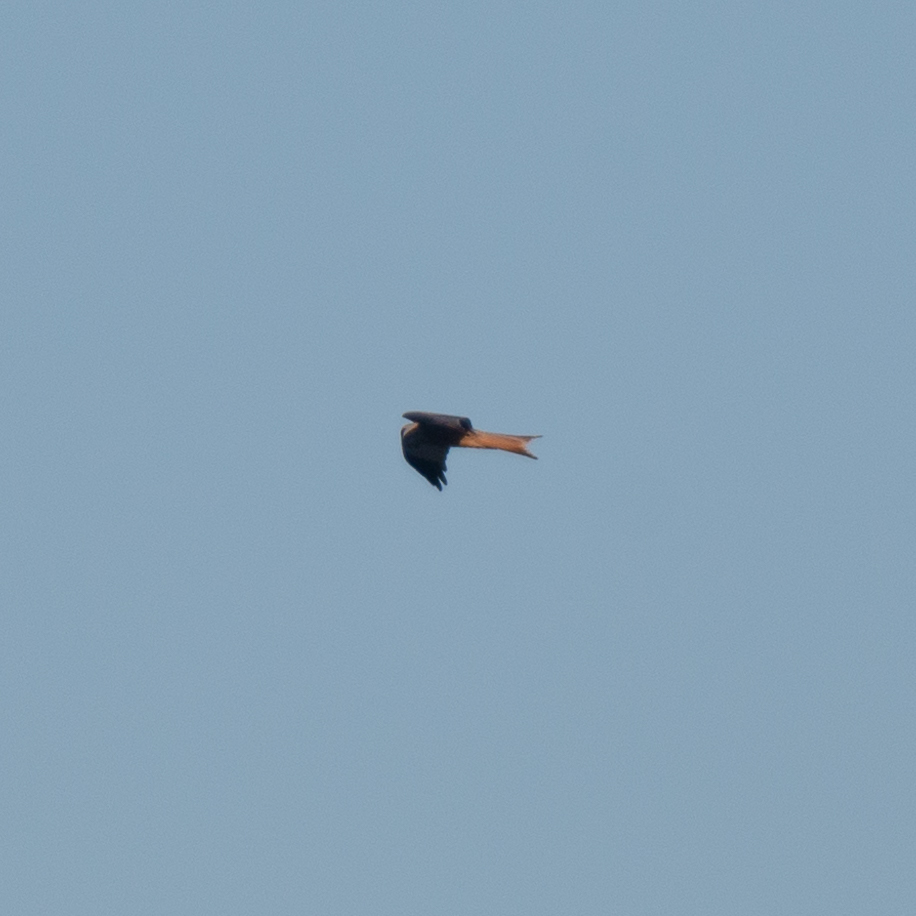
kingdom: Animalia
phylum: Chordata
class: Aves
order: Accipitriformes
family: Accipitridae
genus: Milvus
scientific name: Milvus milvus
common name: Red kite
